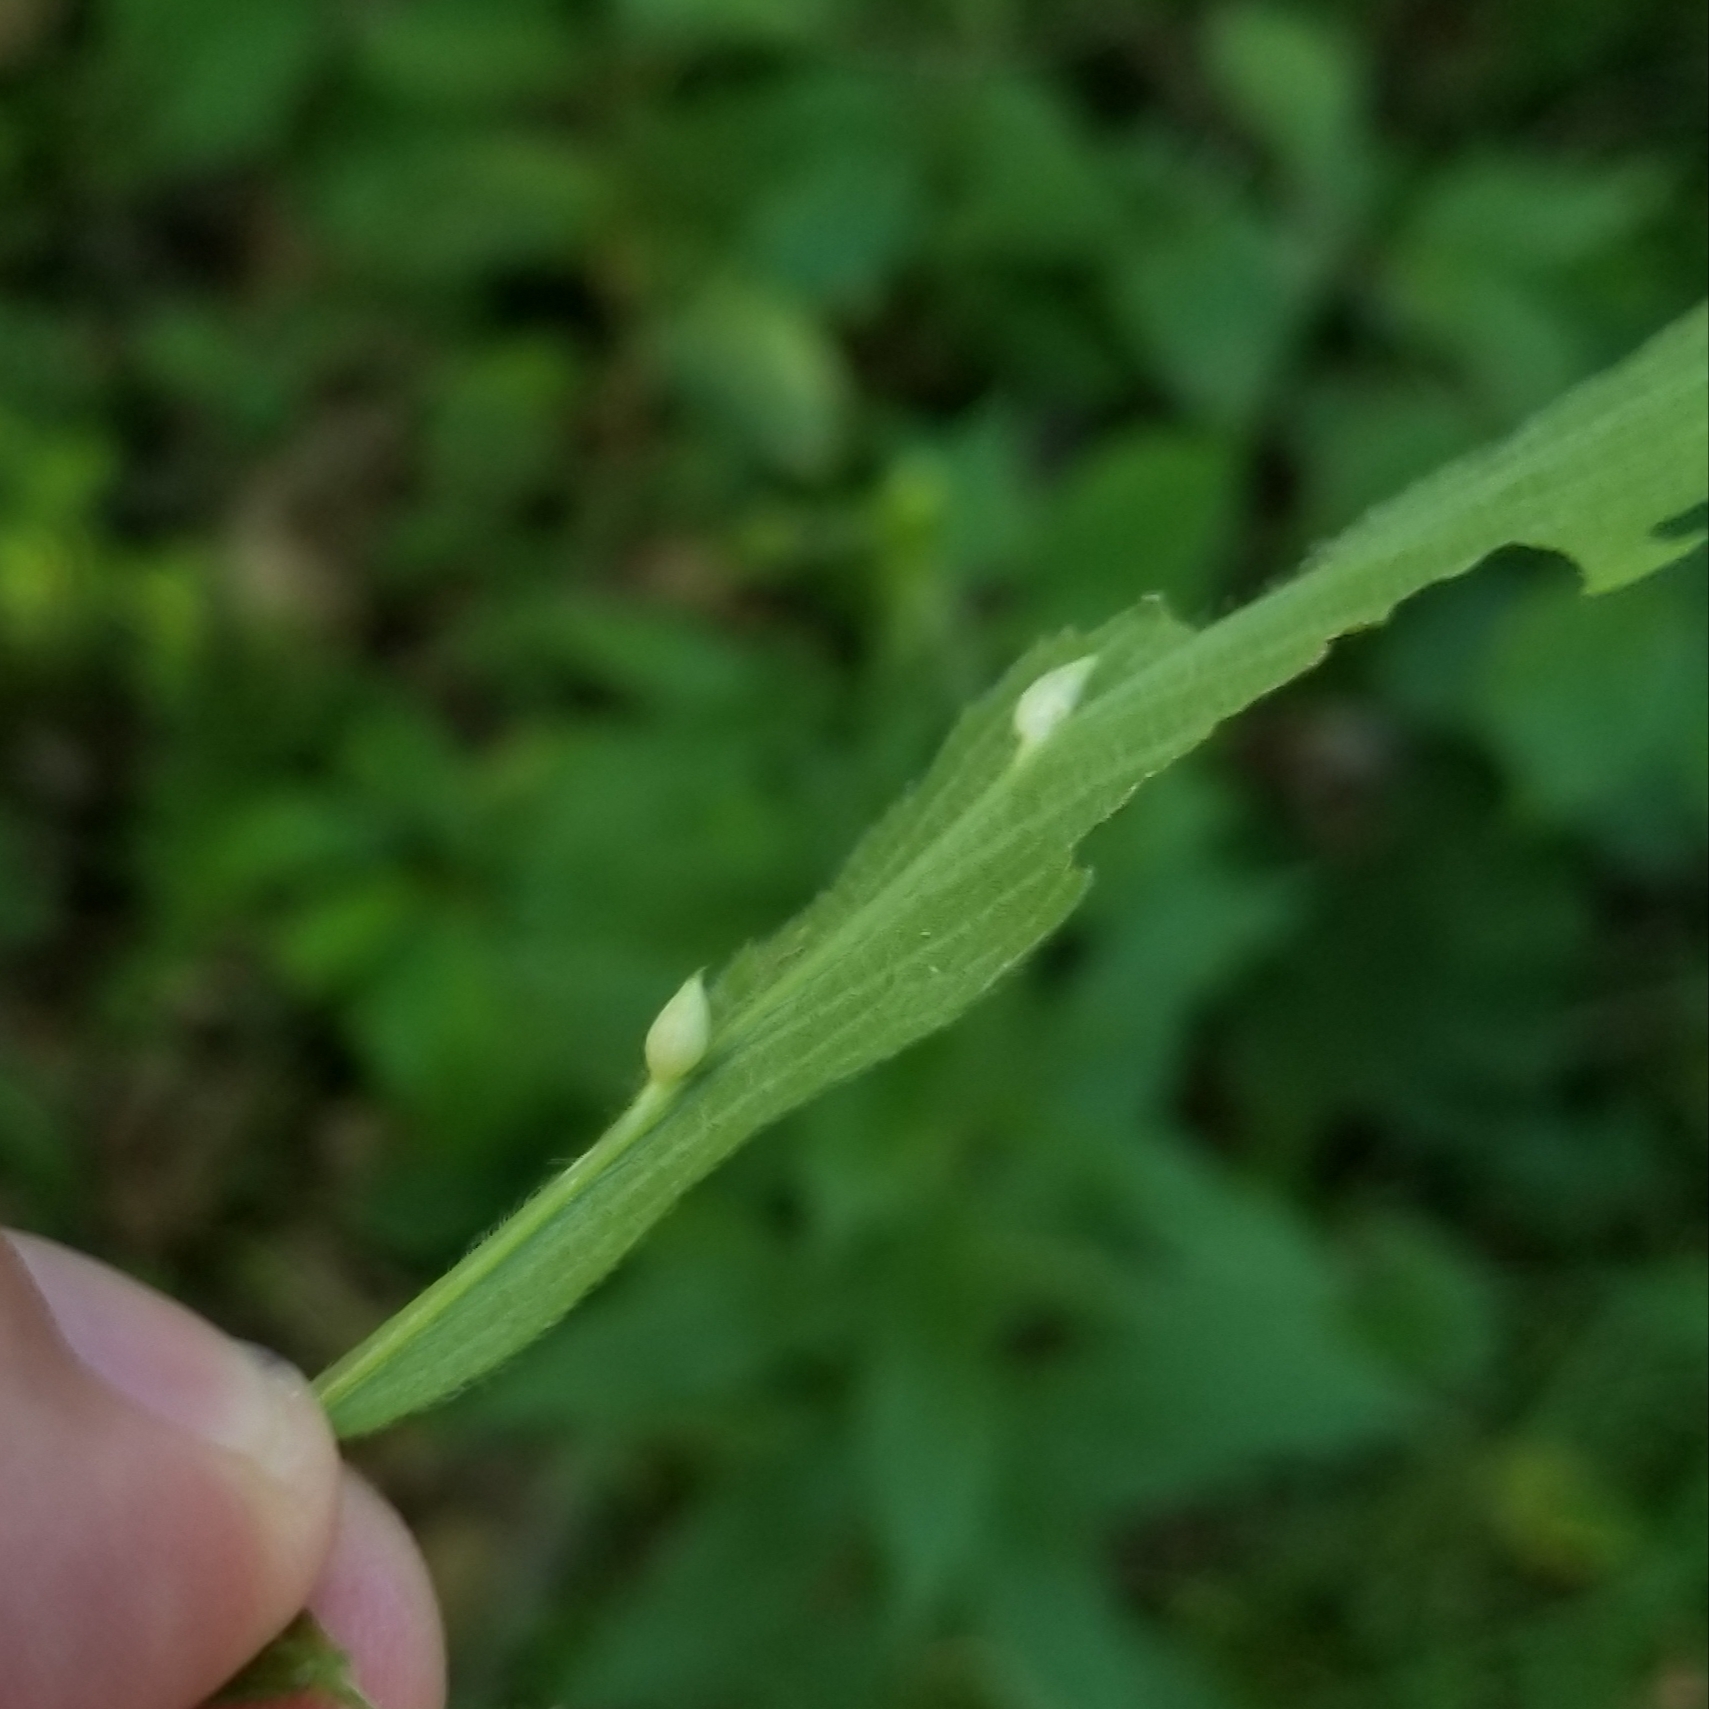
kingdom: Animalia
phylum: Arthropoda
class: Insecta
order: Diptera
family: Cecidomyiidae
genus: Rhopalomyia
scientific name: Rhopalomyia clarkei
